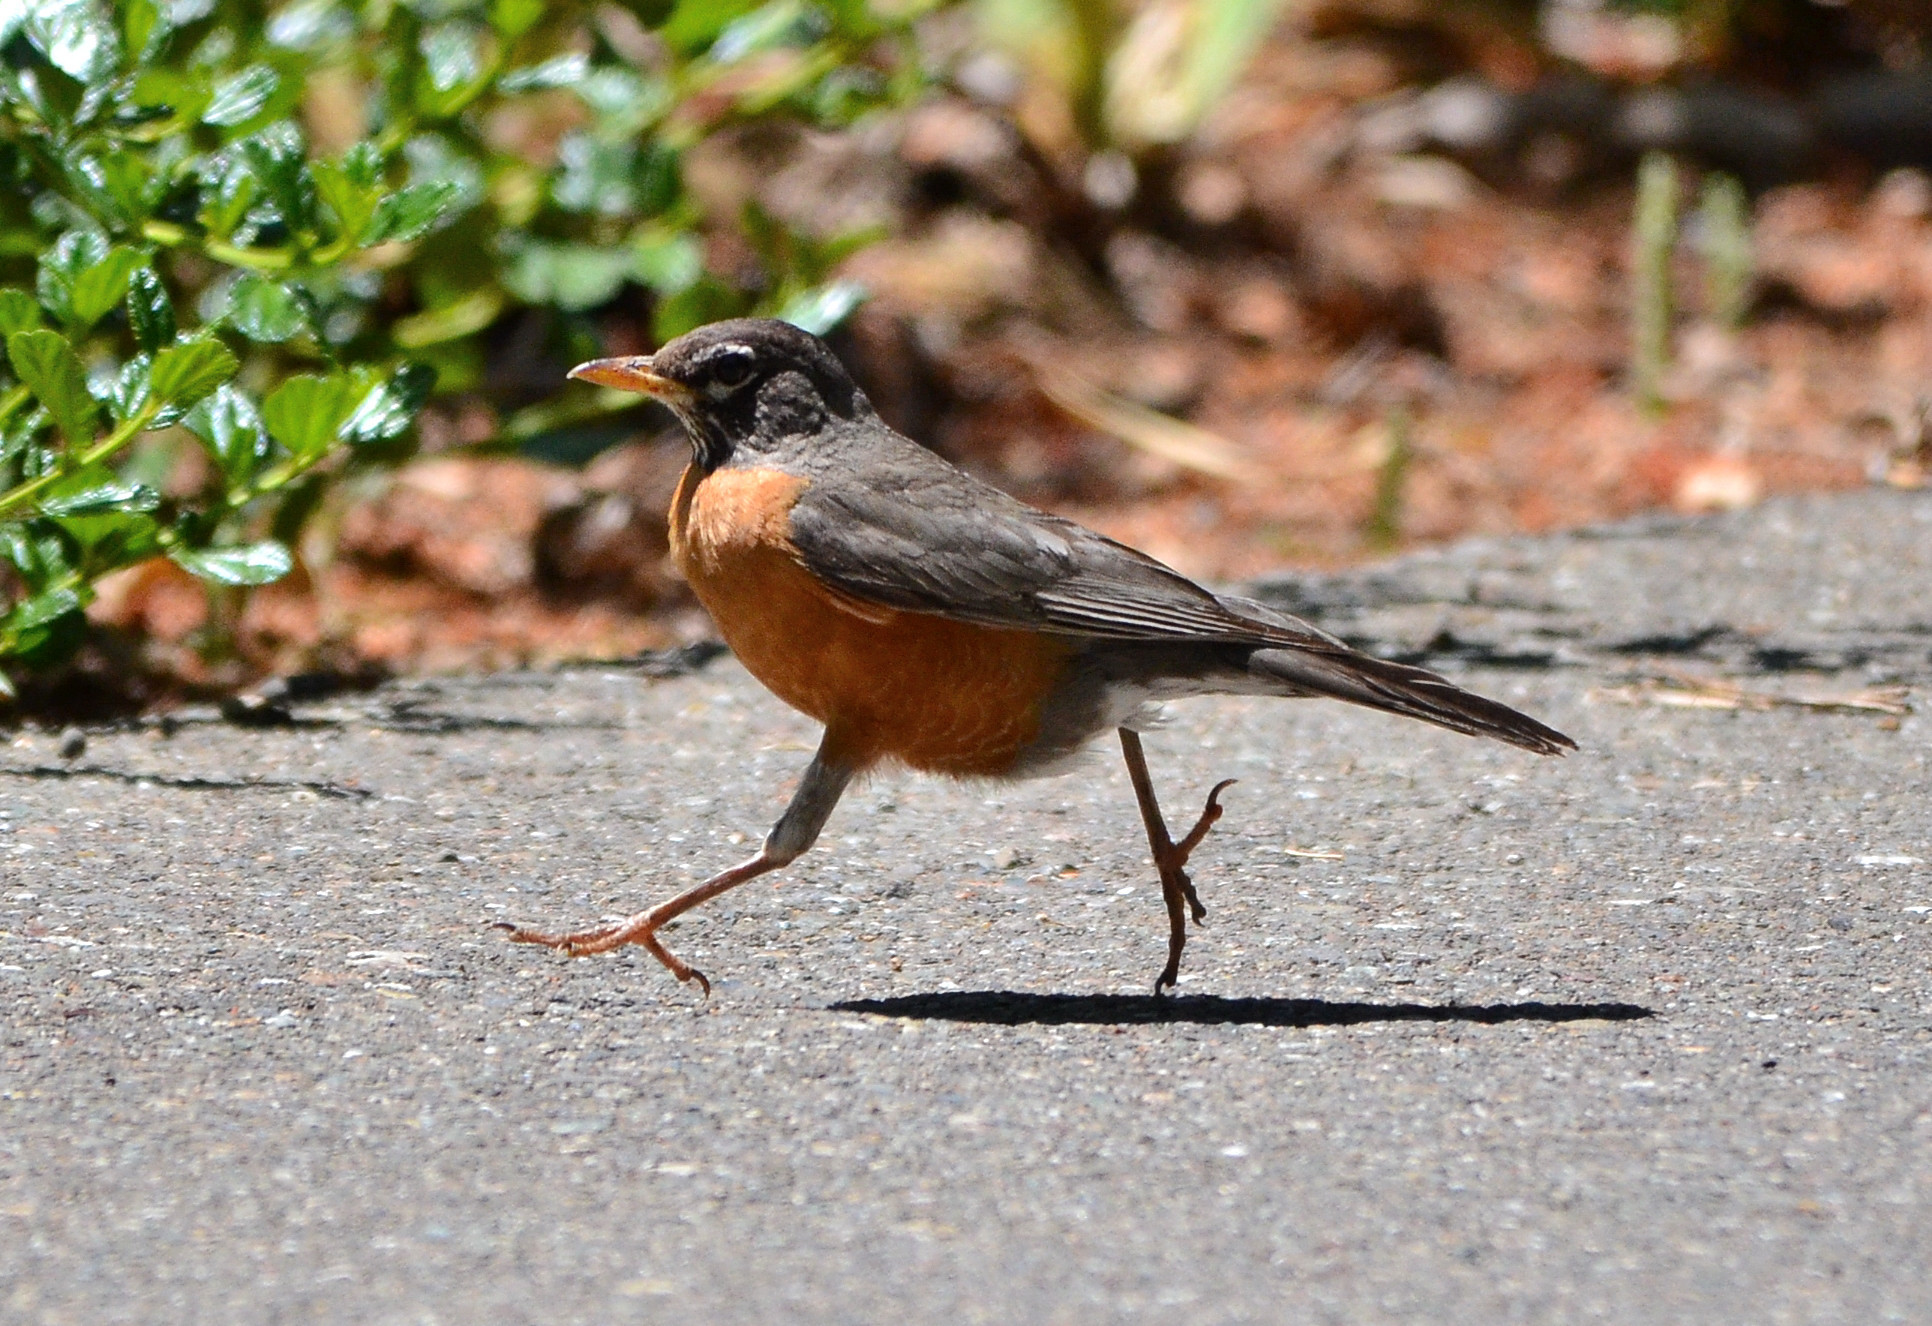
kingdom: Animalia
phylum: Chordata
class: Aves
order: Passeriformes
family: Turdidae
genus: Turdus
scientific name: Turdus migratorius
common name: American robin
